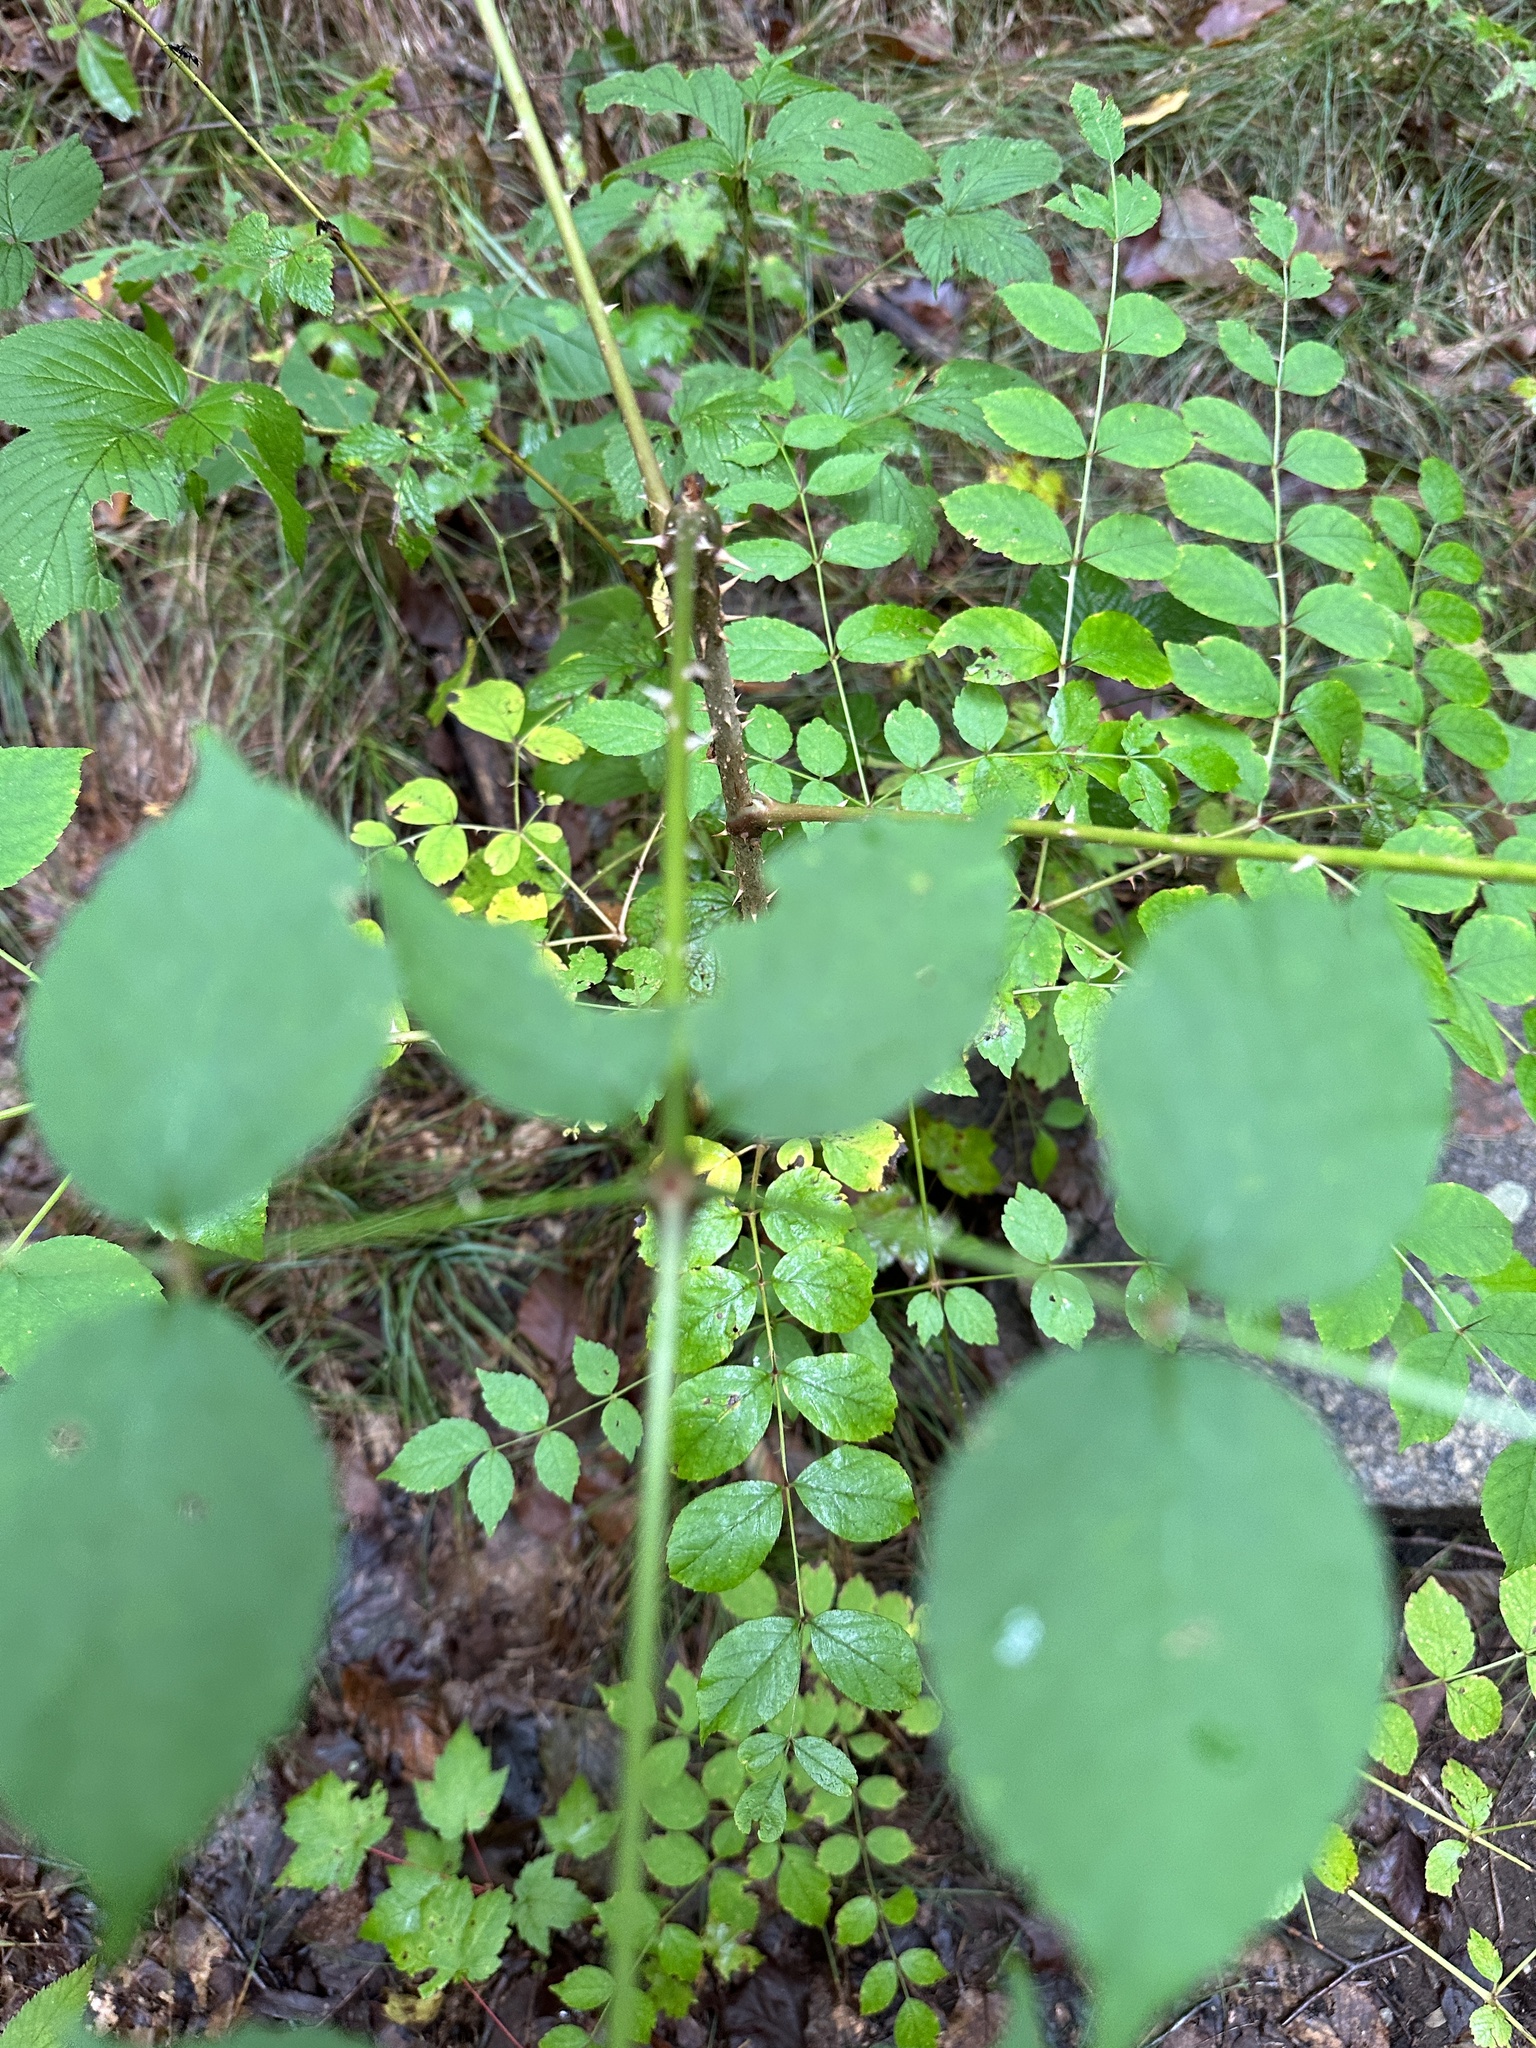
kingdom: Plantae
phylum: Tracheophyta
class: Magnoliopsida
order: Apiales
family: Araliaceae
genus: Aralia
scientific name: Aralia elata
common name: Japanese angelica-tree
